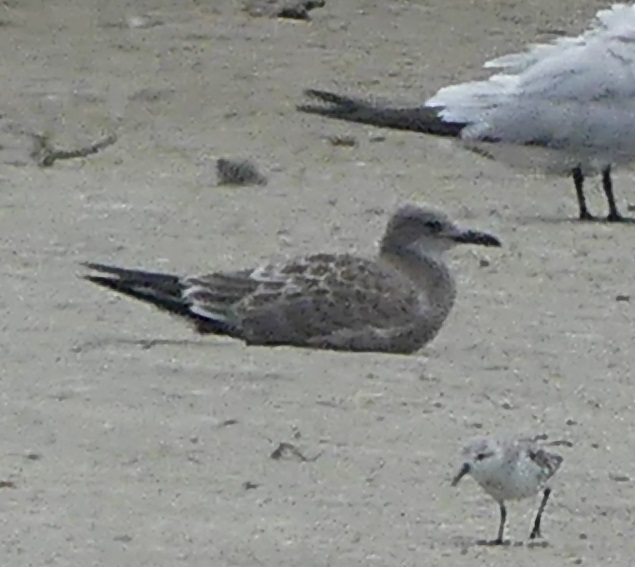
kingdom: Animalia
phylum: Chordata
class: Aves
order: Charadriiformes
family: Laridae
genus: Leucophaeus
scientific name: Leucophaeus atricilla
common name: Laughing gull
